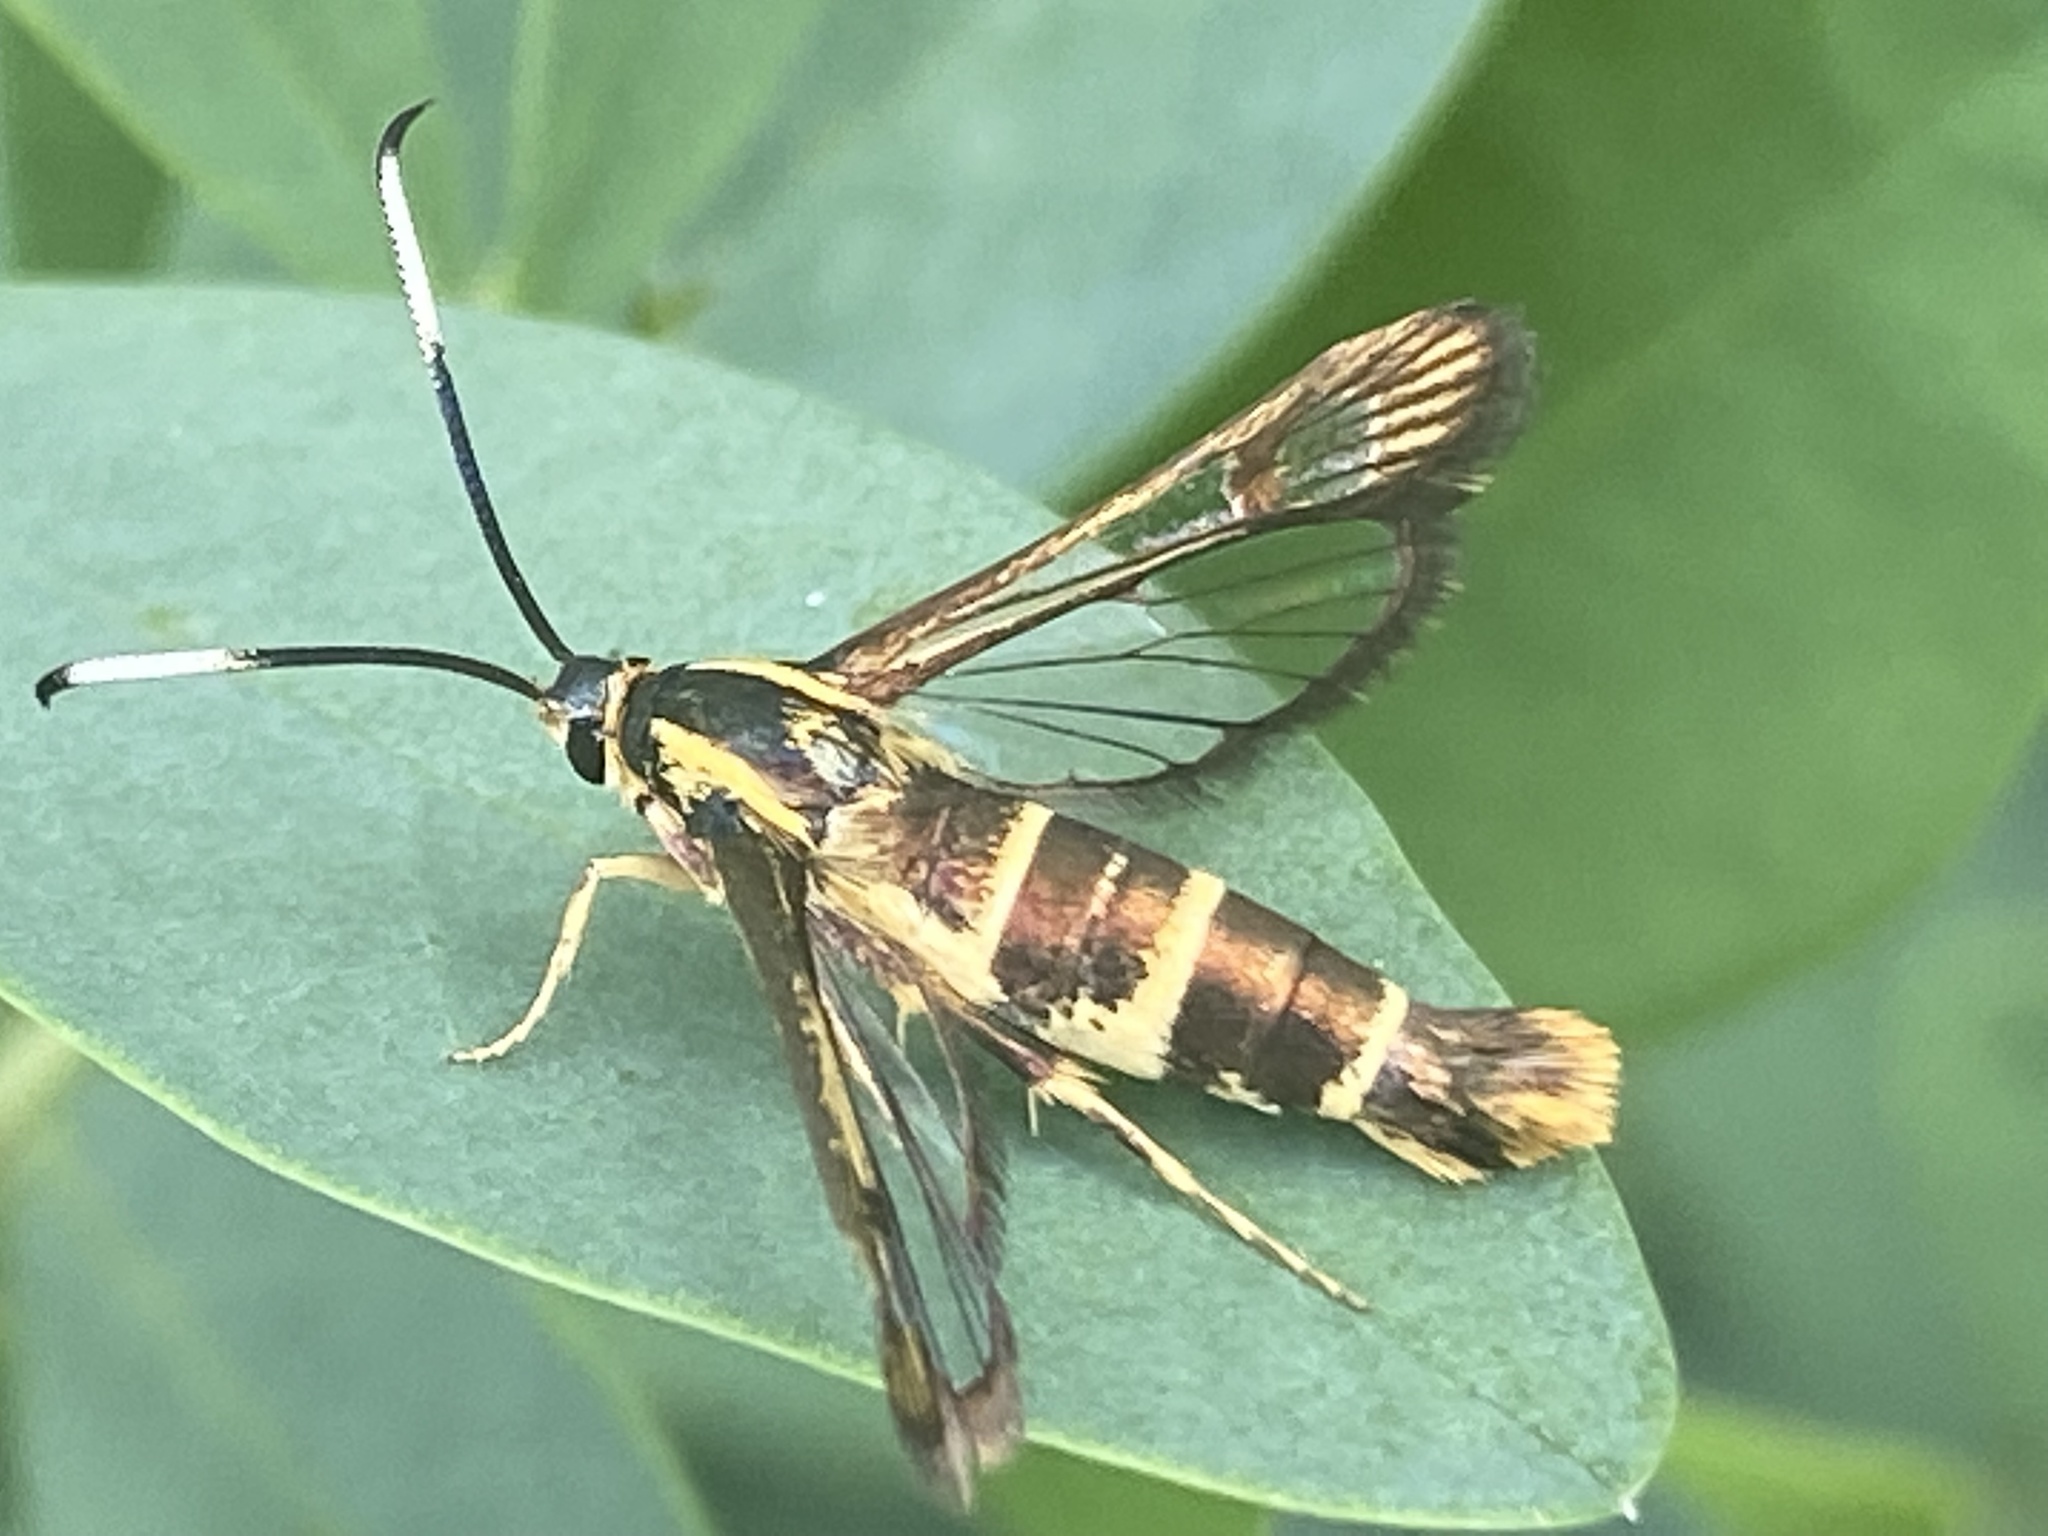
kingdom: Animalia
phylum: Arthropoda
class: Insecta
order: Lepidoptera
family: Sesiidae
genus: Carmenta
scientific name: Carmenta bassiformis
